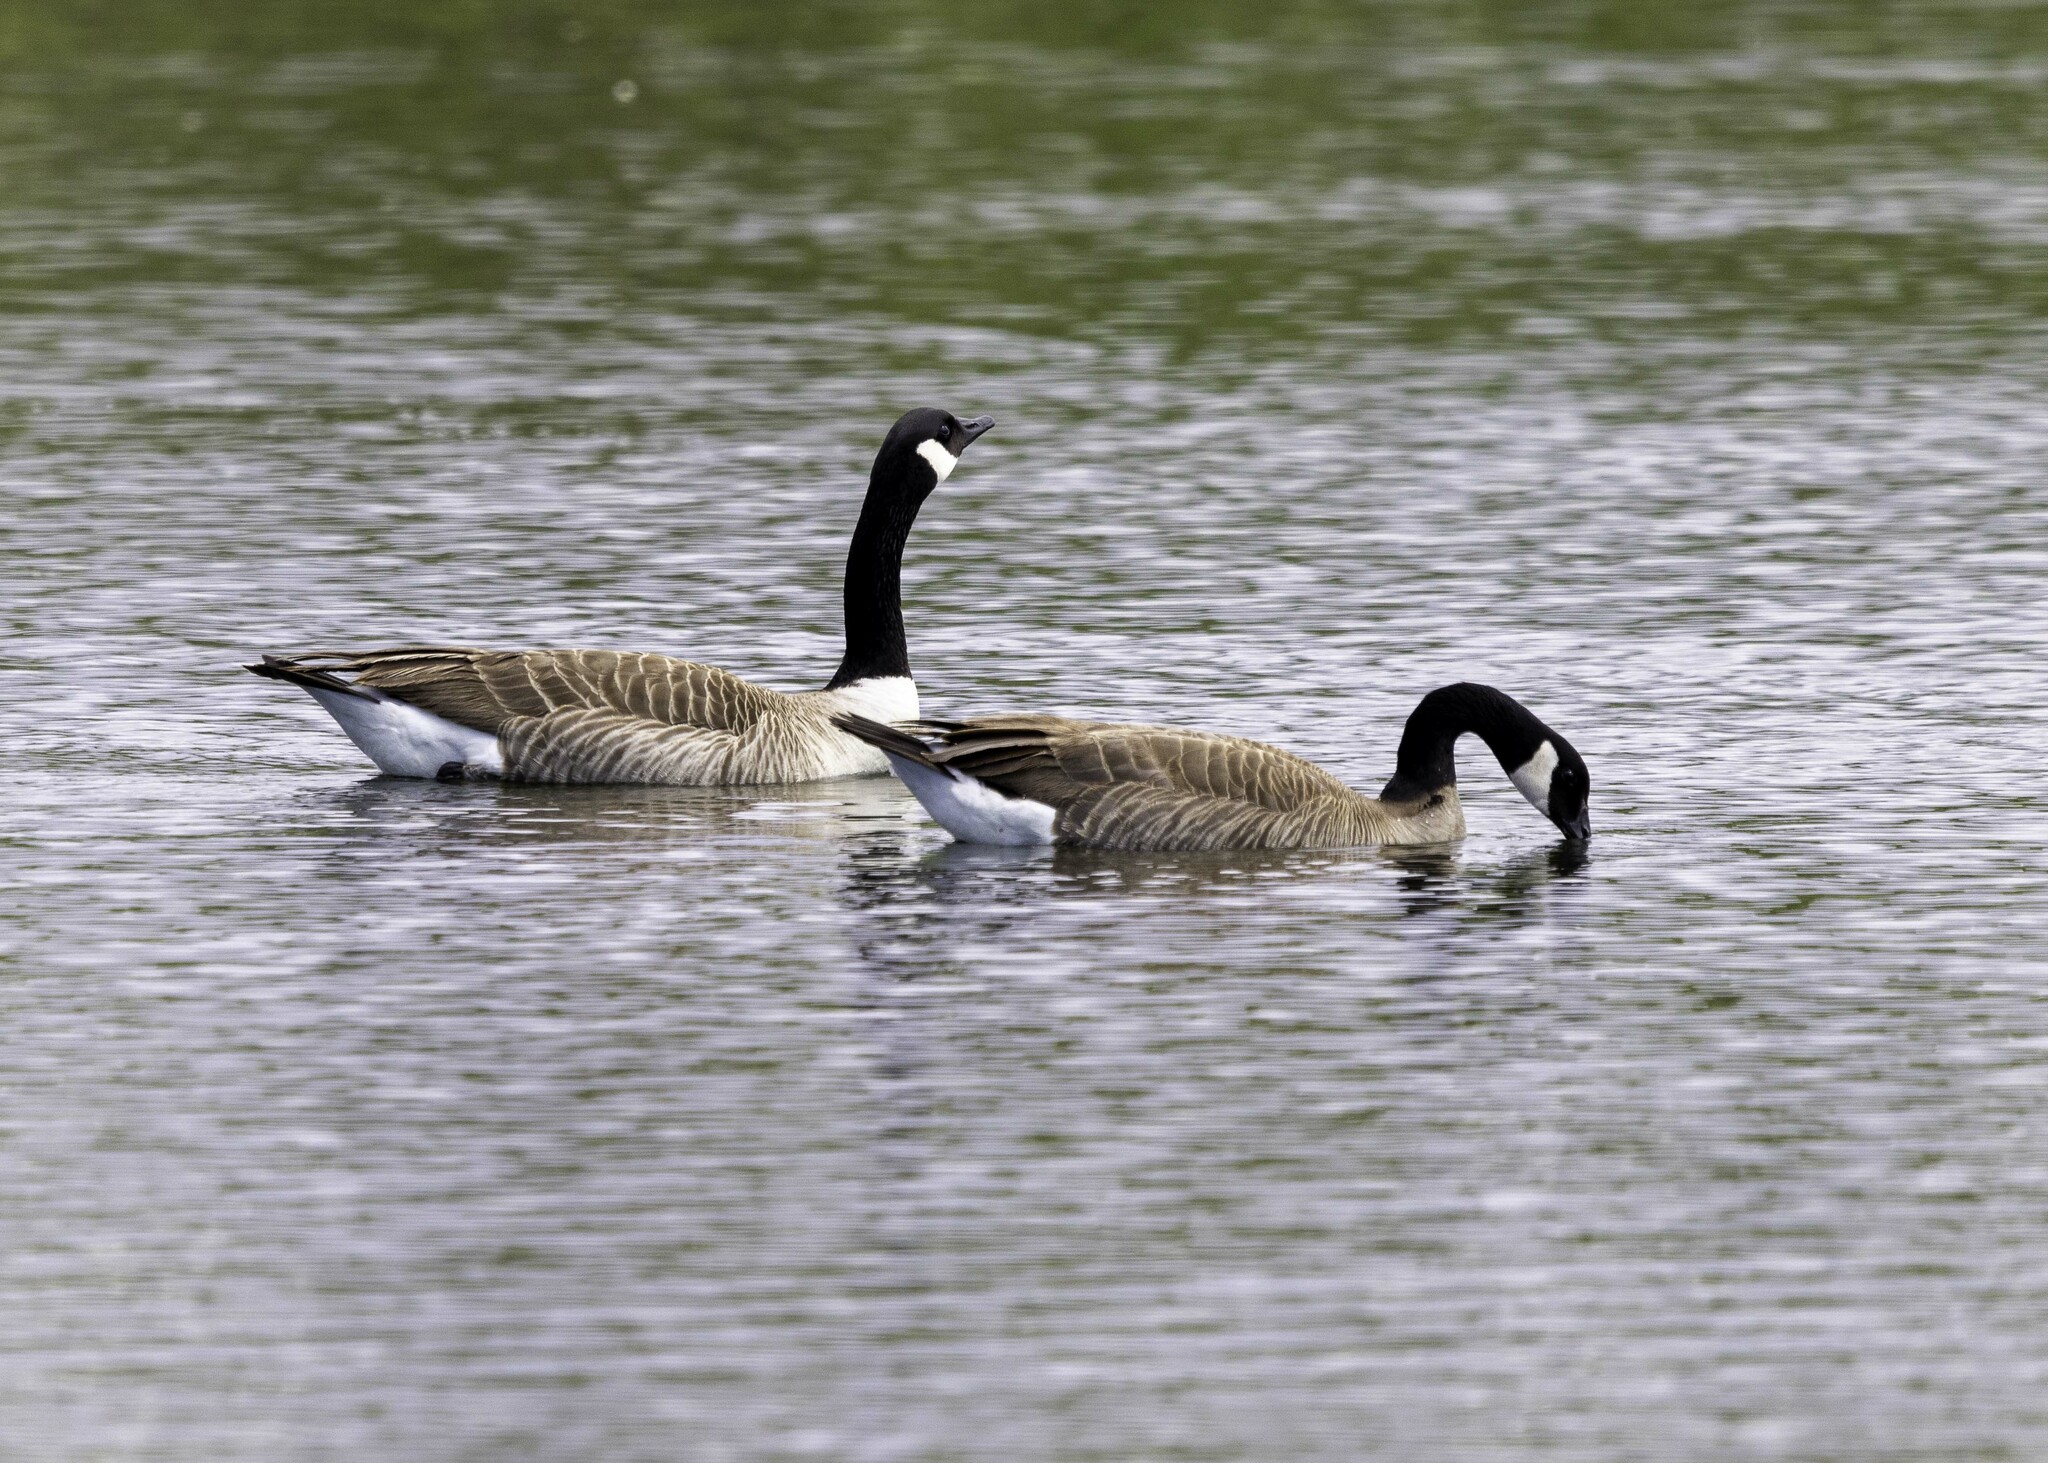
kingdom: Animalia
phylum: Chordata
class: Aves
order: Anseriformes
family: Anatidae
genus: Branta
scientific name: Branta canadensis
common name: Canada goose
